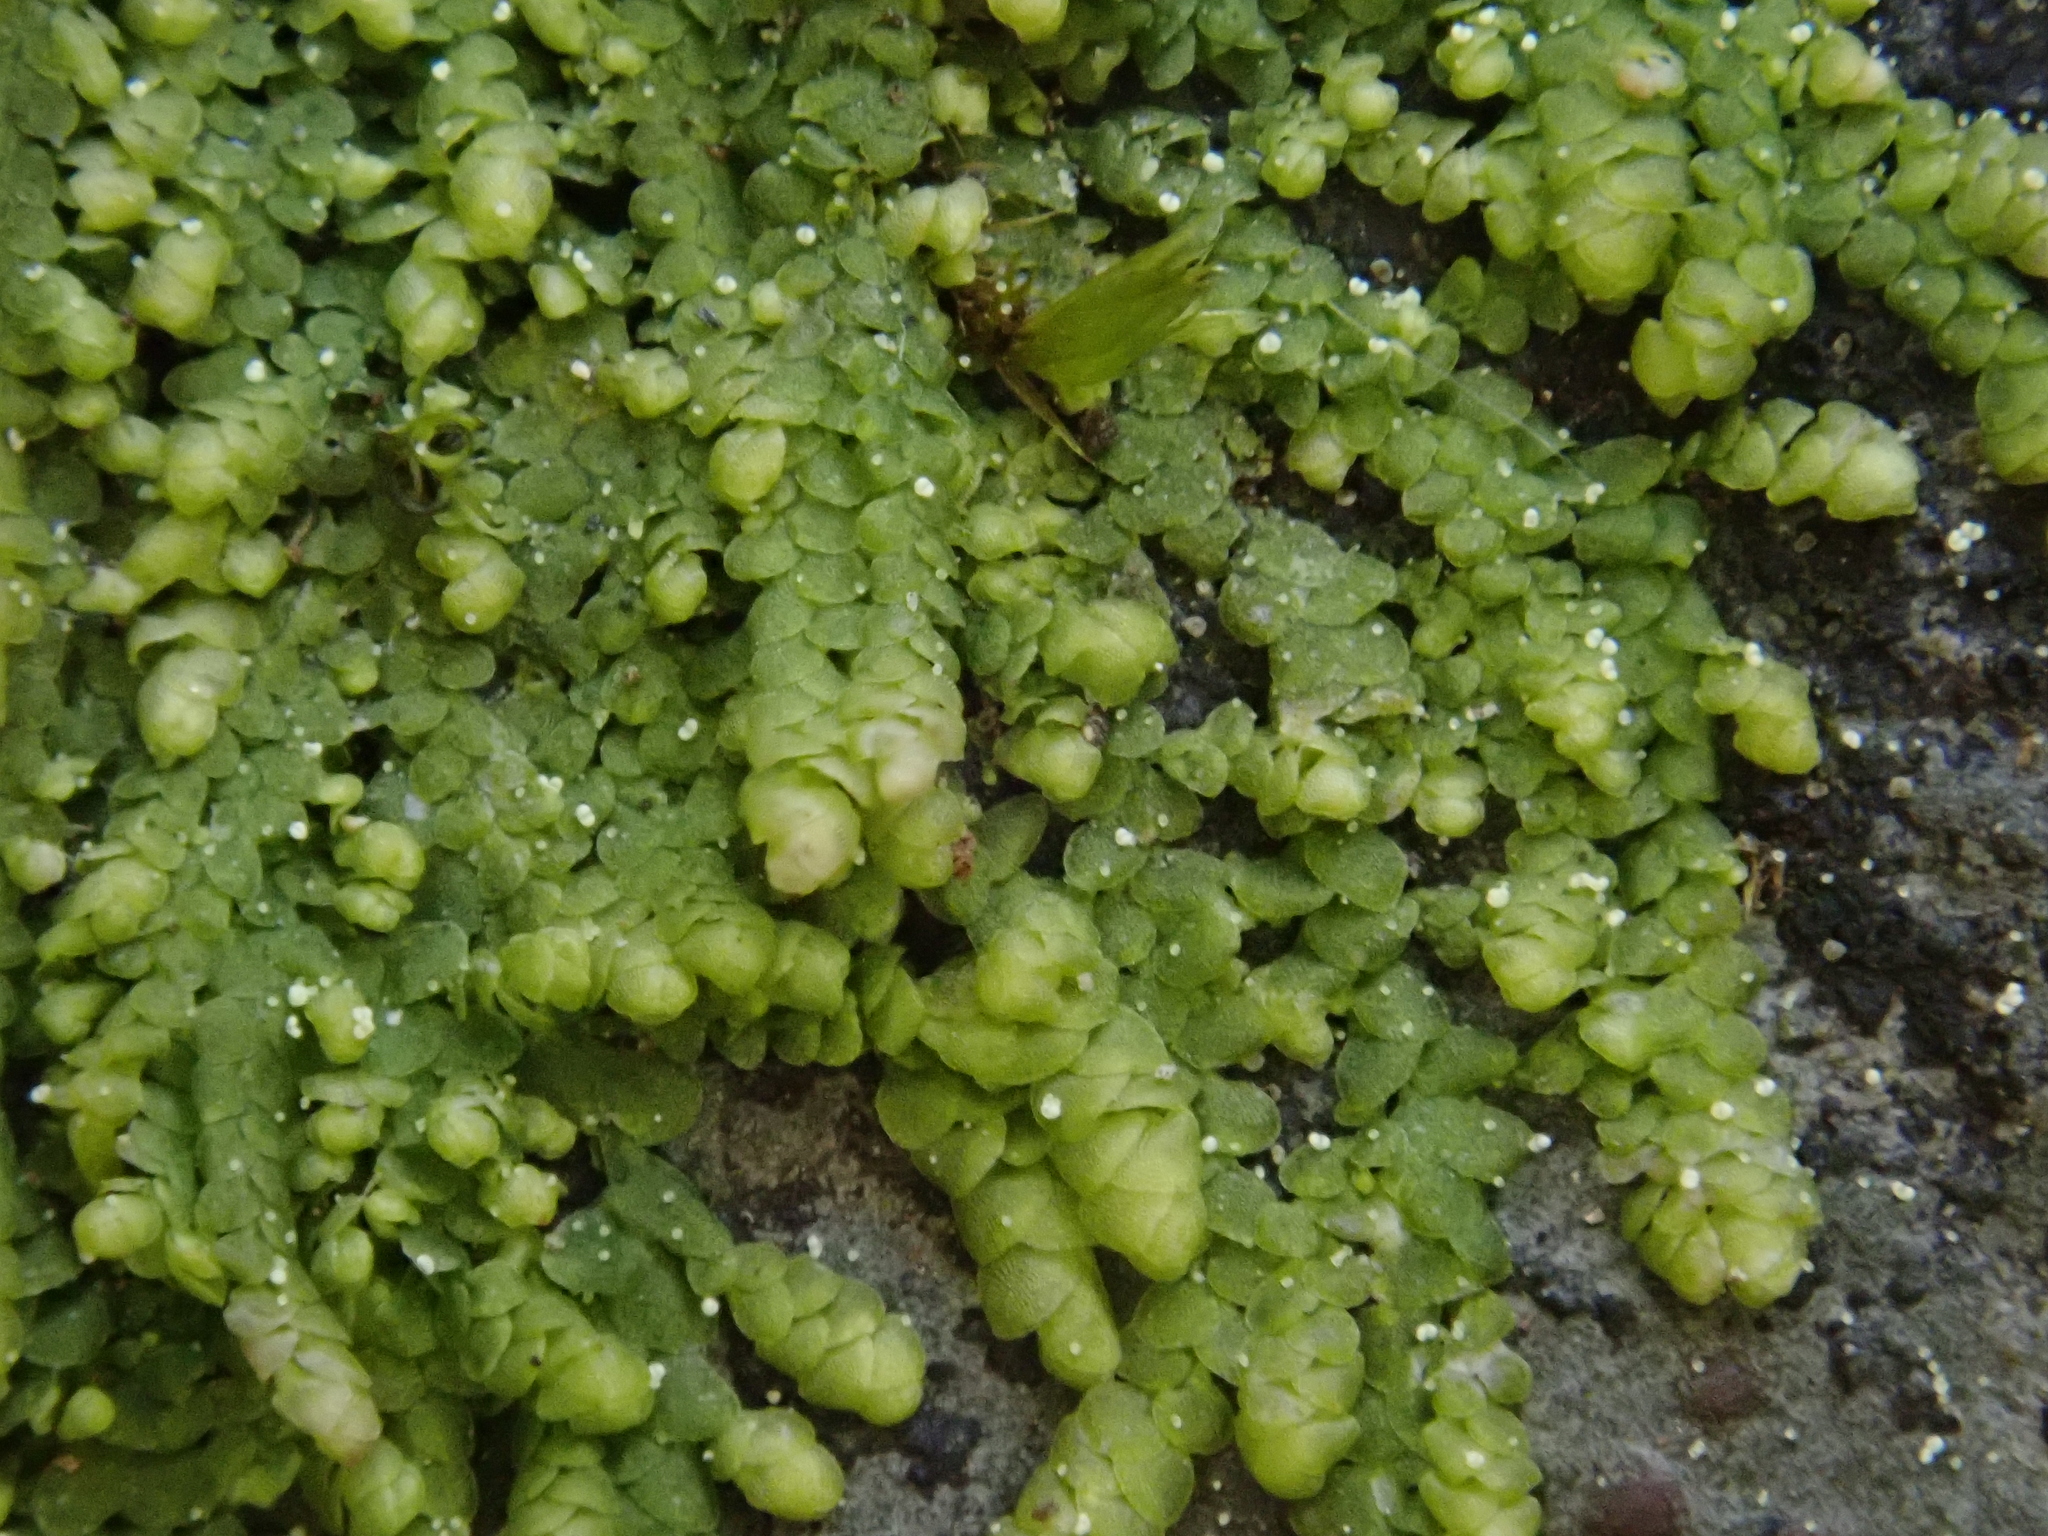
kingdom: Plantae
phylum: Marchantiophyta
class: Jungermanniopsida
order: Porellales
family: Lejeuneaceae
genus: Lejeunea
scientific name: Lejeunea cavifolia
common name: Least pouncewort
